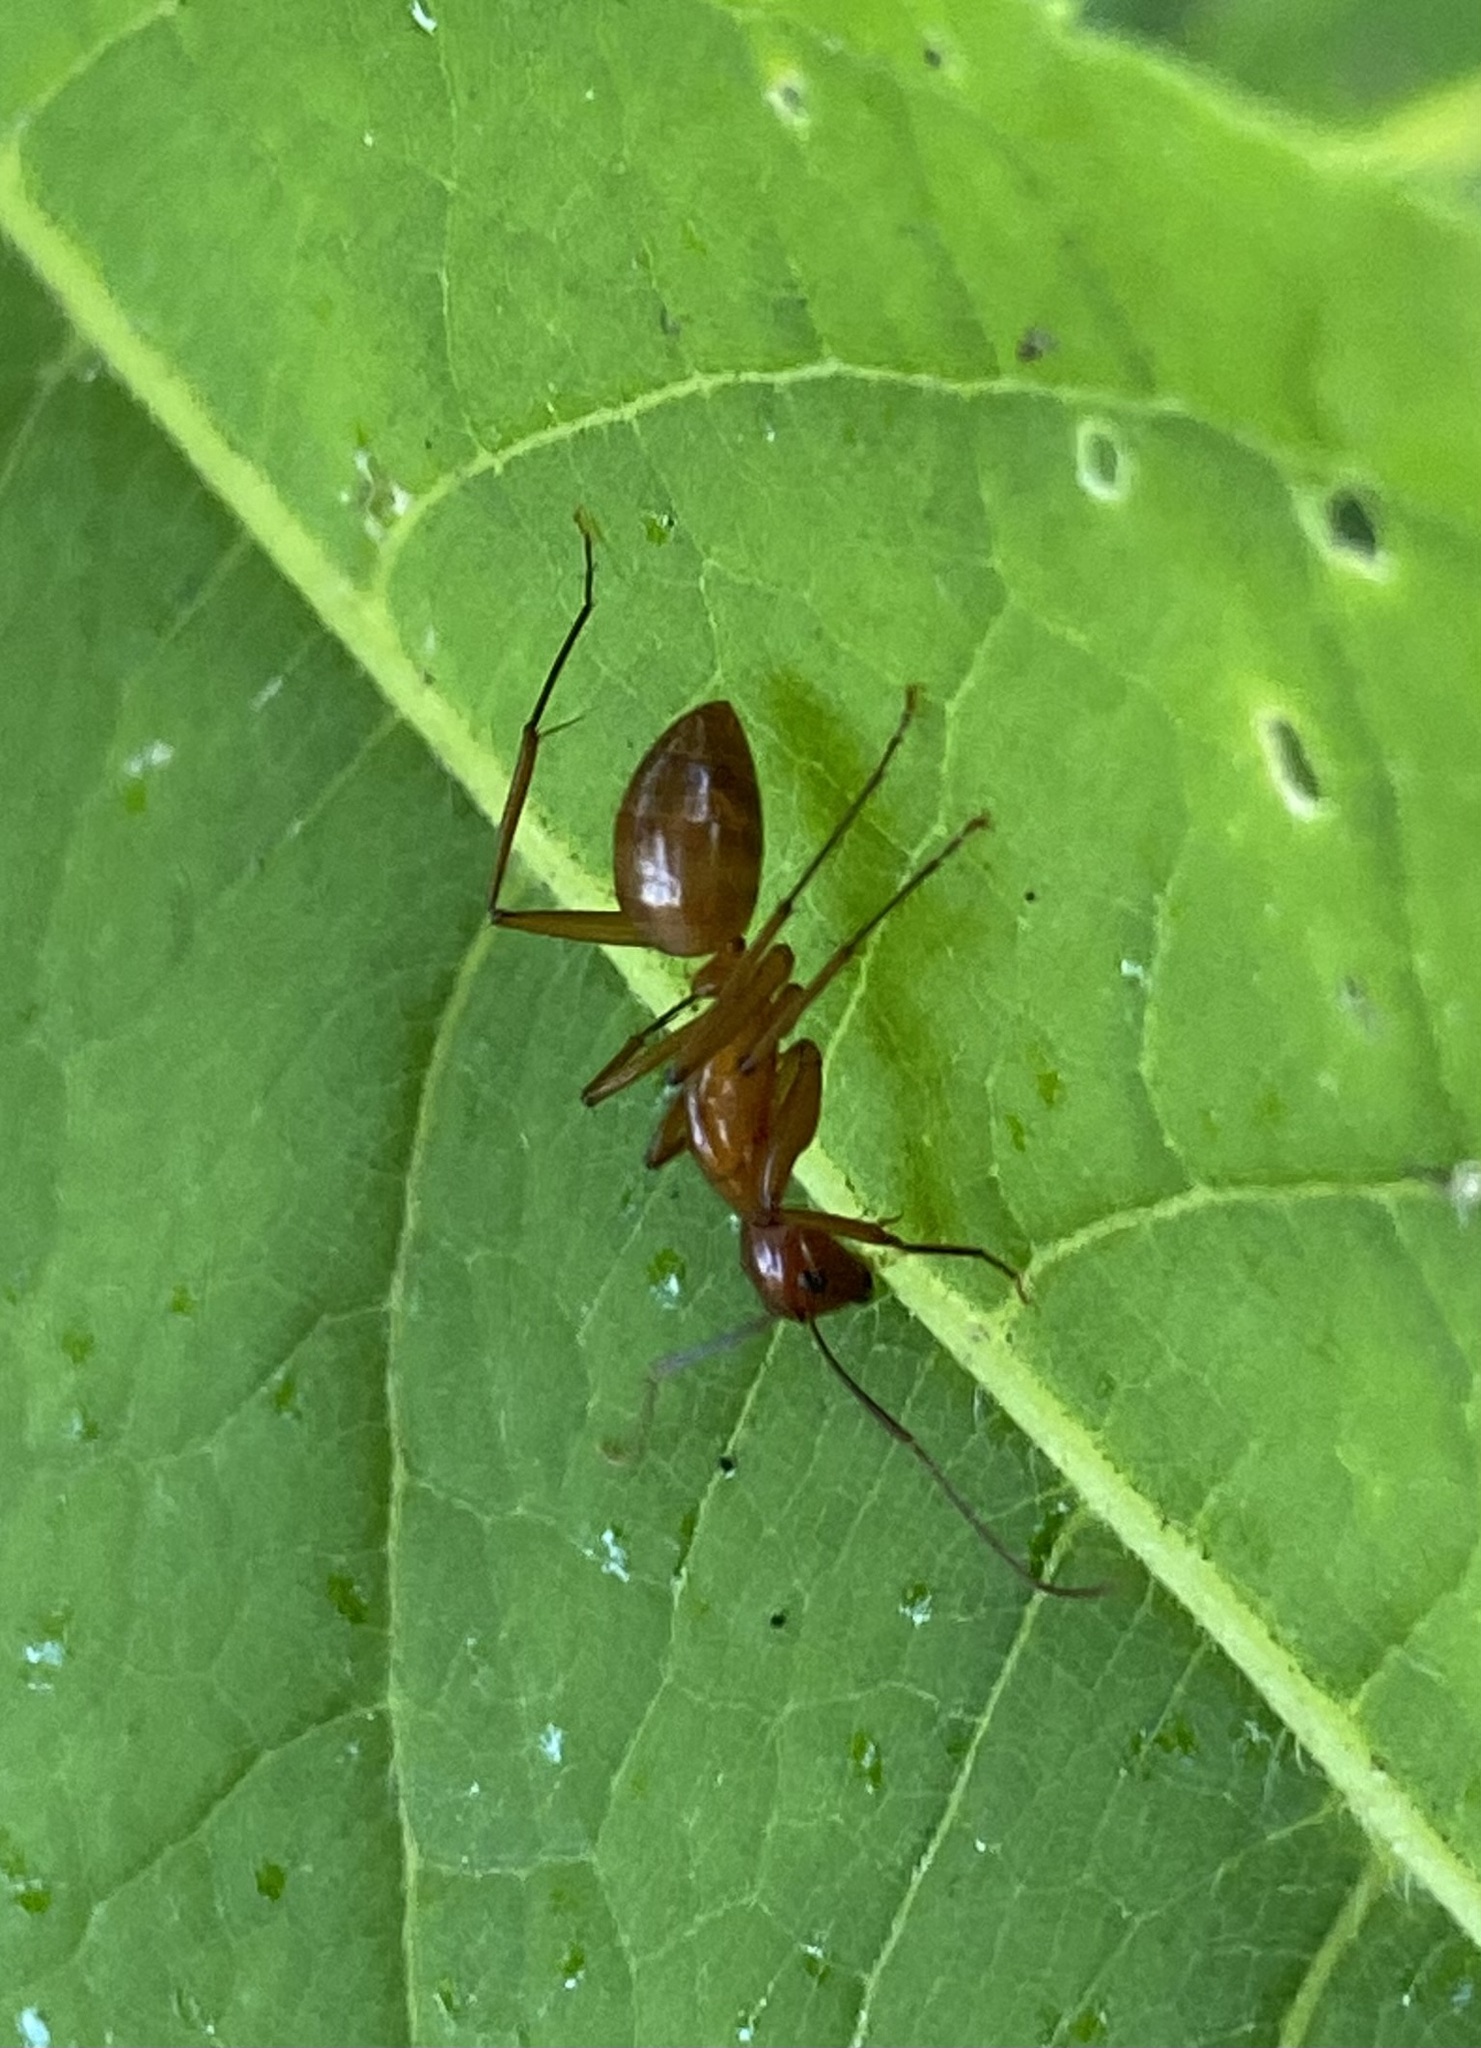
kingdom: Animalia
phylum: Arthropoda
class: Insecta
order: Hymenoptera
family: Formicidae
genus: Camponotus
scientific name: Camponotus castaneus
